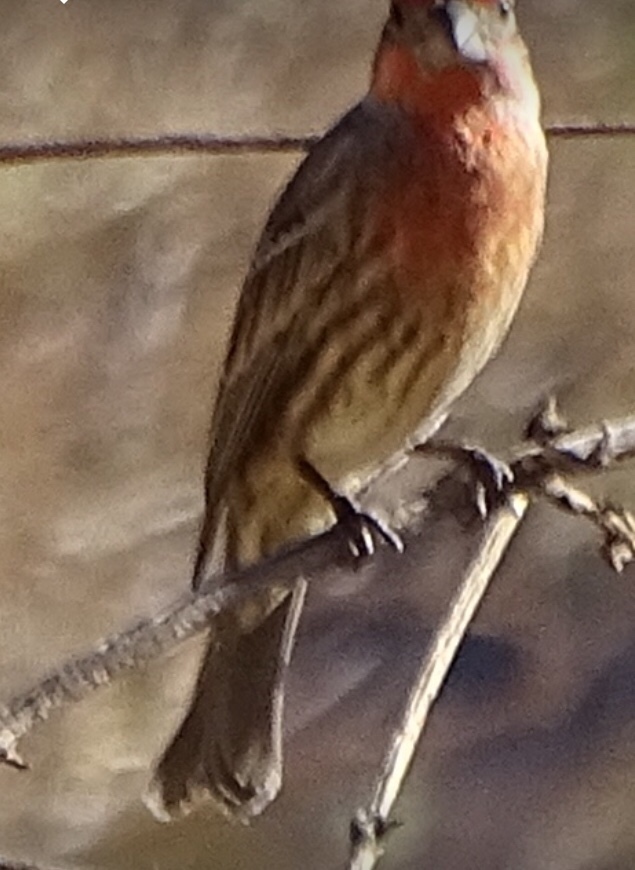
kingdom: Animalia
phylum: Chordata
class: Aves
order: Passeriformes
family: Fringillidae
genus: Haemorhous
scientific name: Haemorhous mexicanus
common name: House finch
